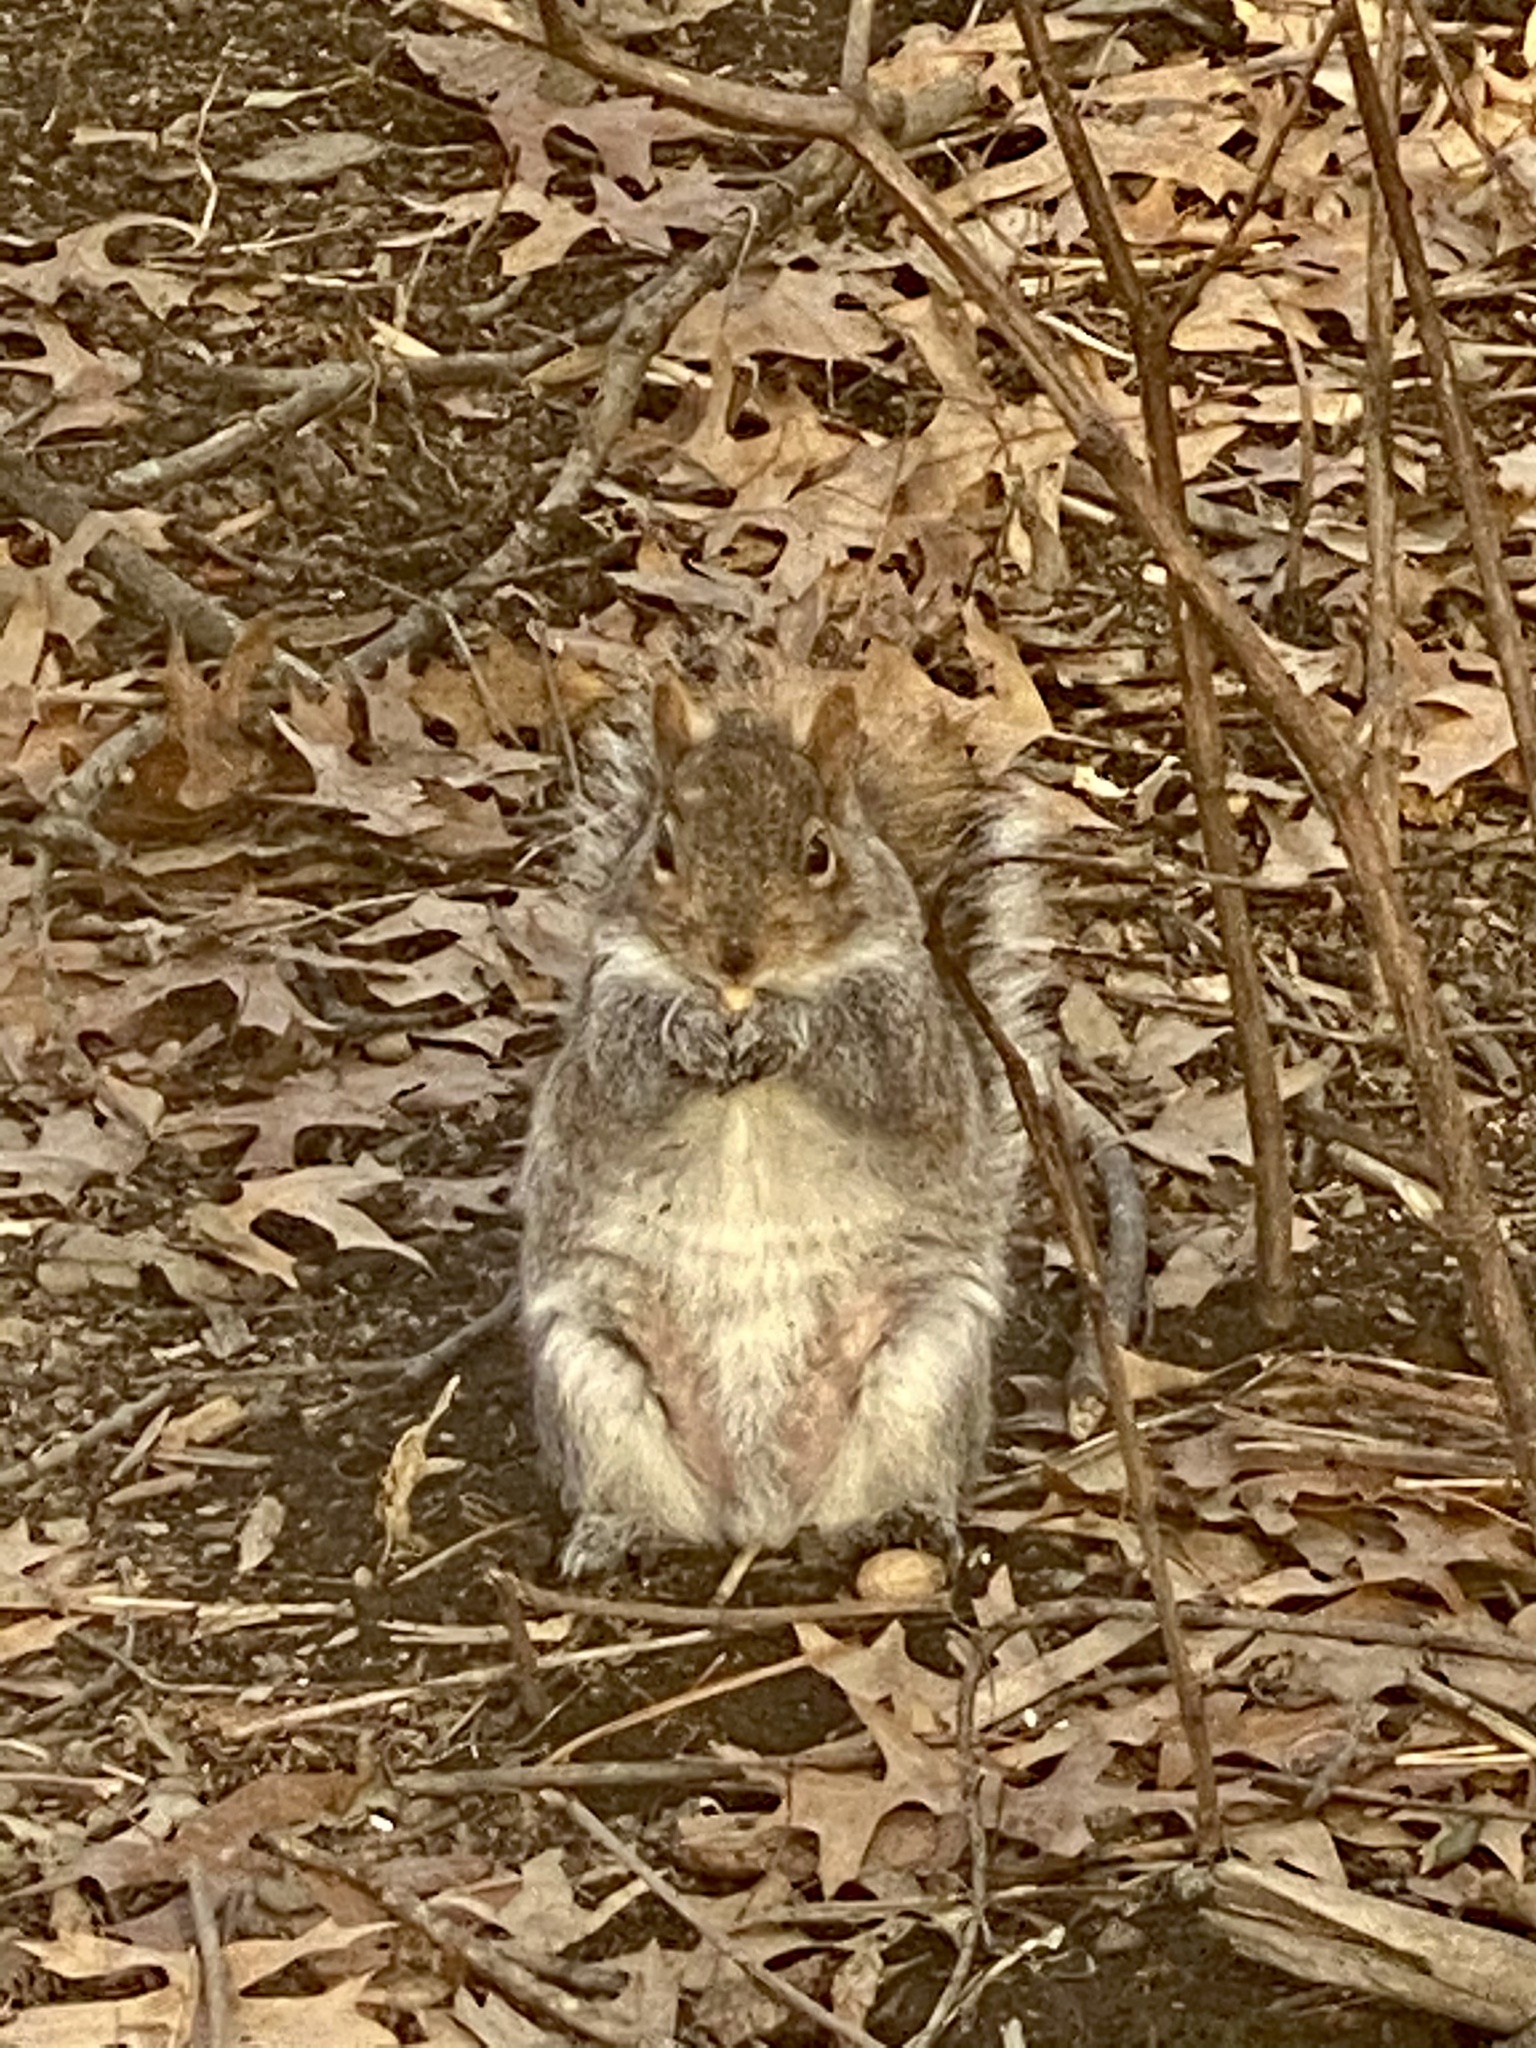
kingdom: Animalia
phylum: Chordata
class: Mammalia
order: Rodentia
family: Sciuridae
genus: Sciurus
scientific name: Sciurus carolinensis
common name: Eastern gray squirrel
